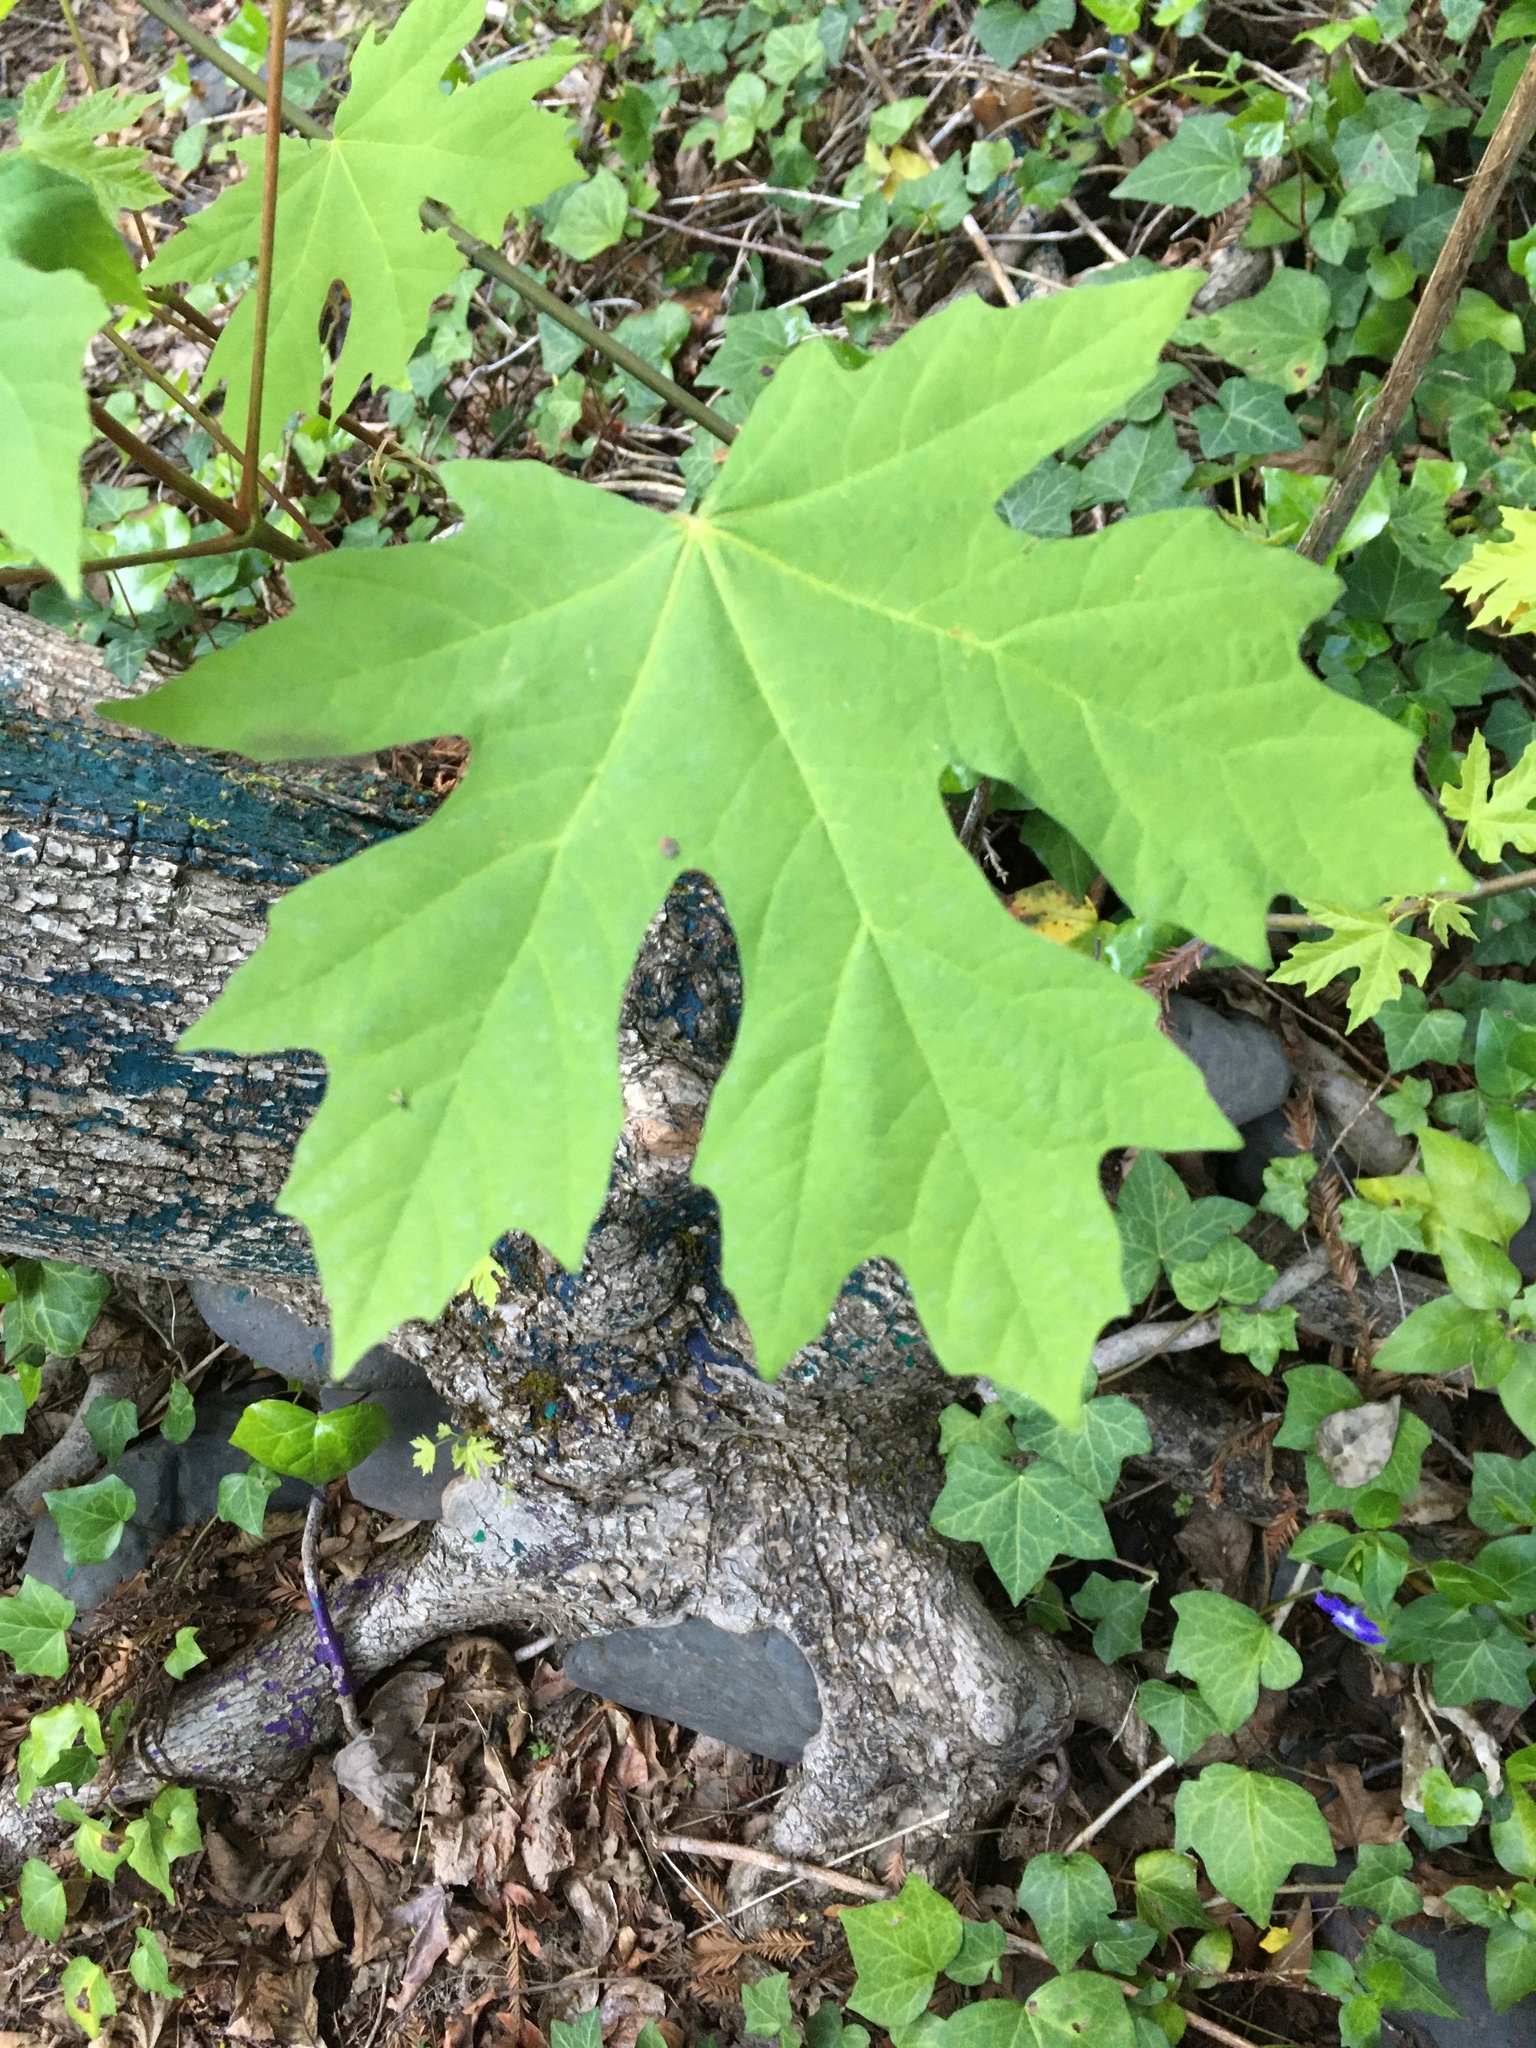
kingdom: Plantae
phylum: Tracheophyta
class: Magnoliopsida
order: Sapindales
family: Sapindaceae
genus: Acer
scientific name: Acer macrophyllum
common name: Oregon maple
